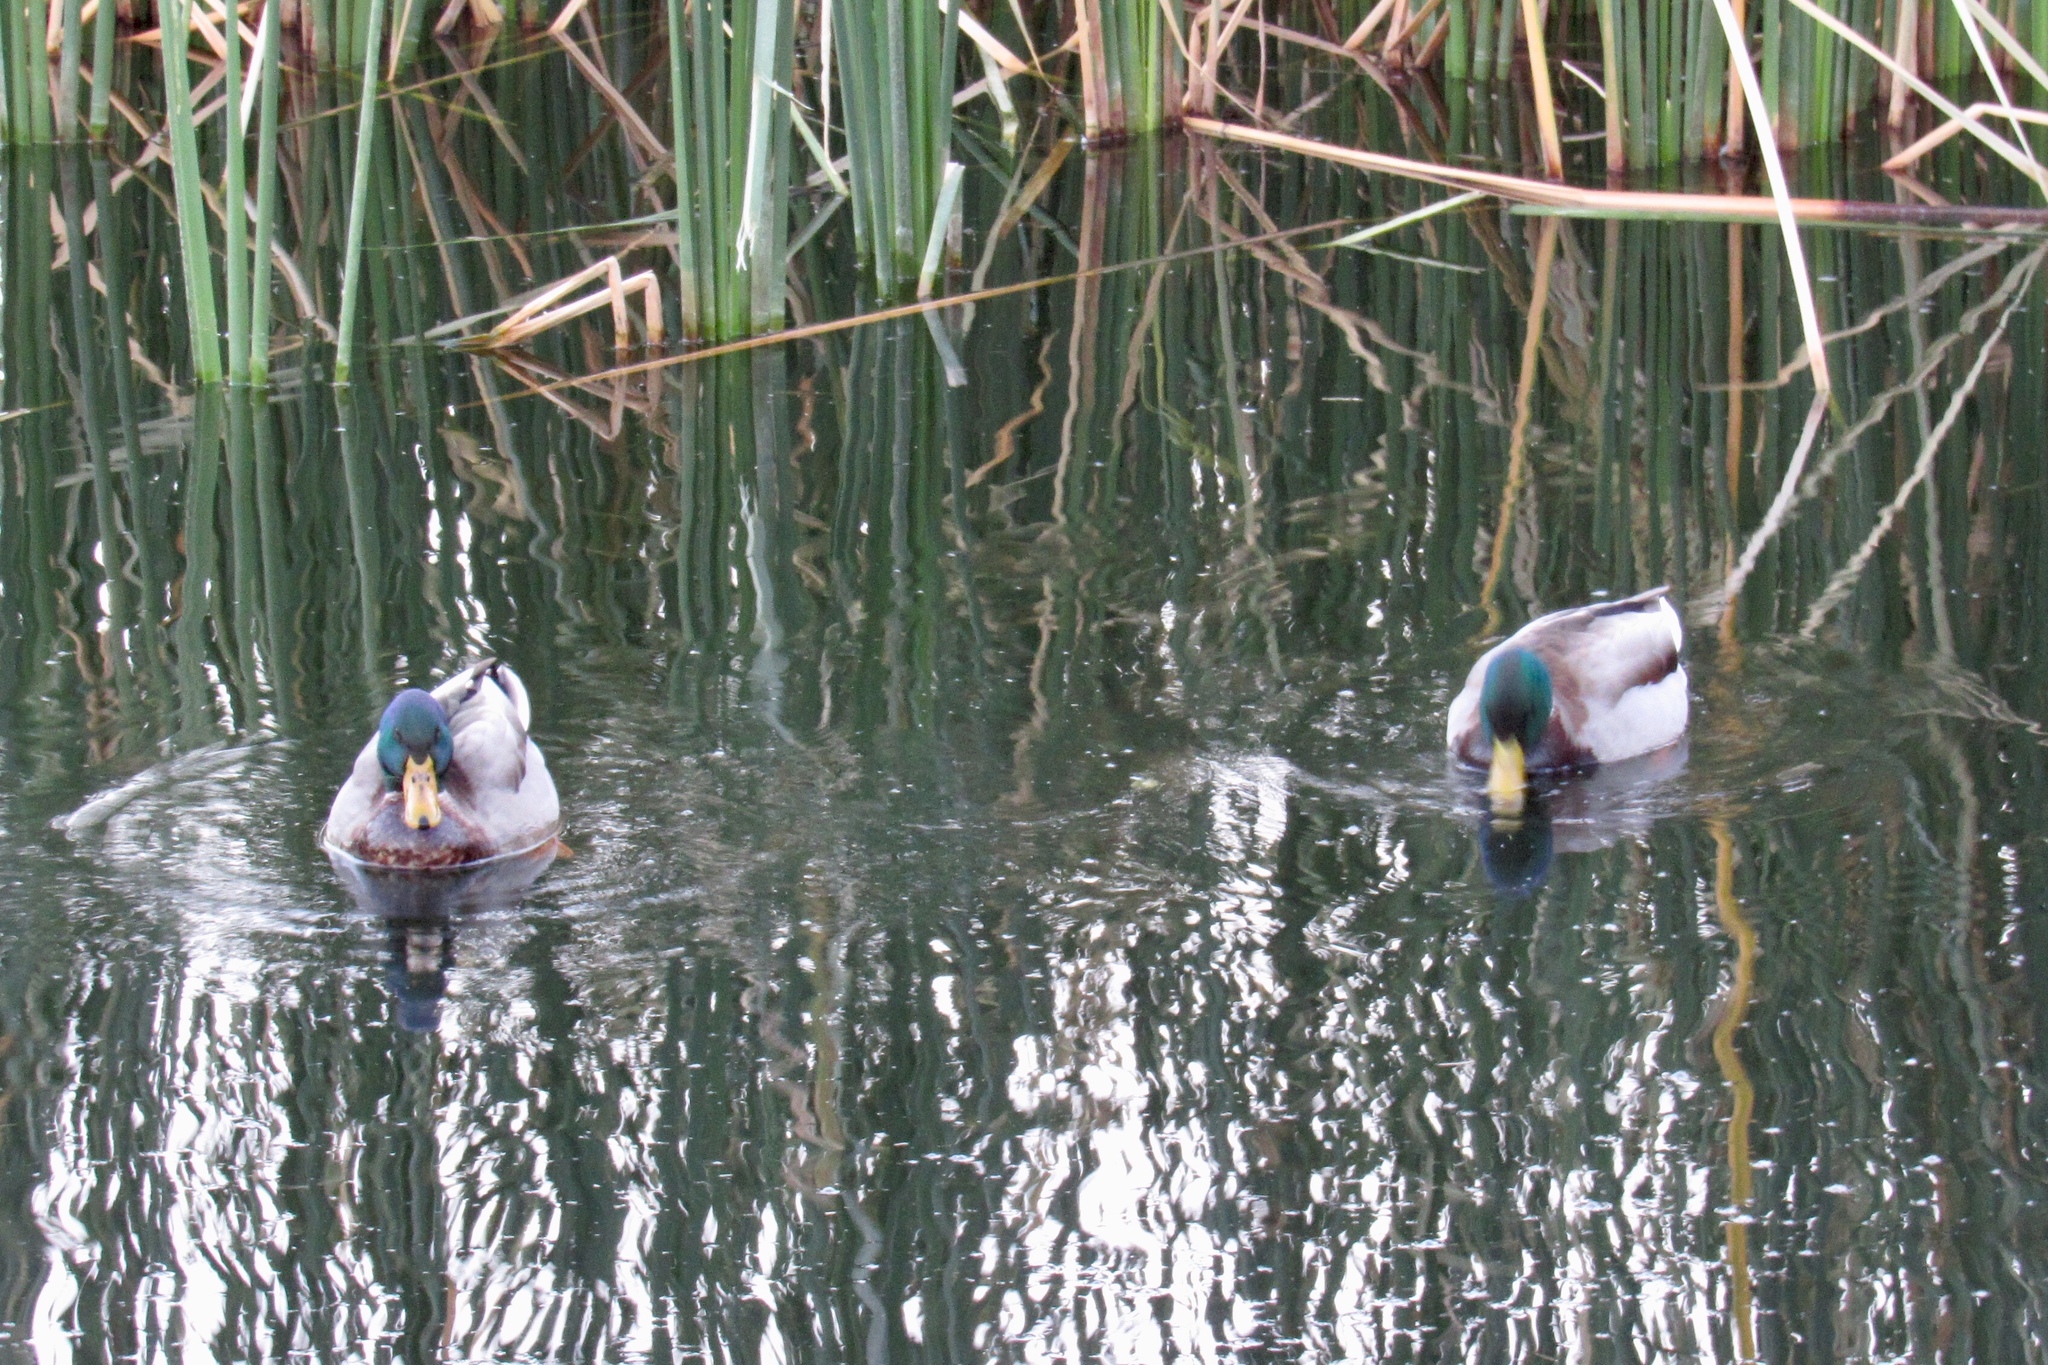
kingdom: Animalia
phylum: Chordata
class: Aves
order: Anseriformes
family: Anatidae
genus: Anas
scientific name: Anas platyrhynchos
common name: Mallard
